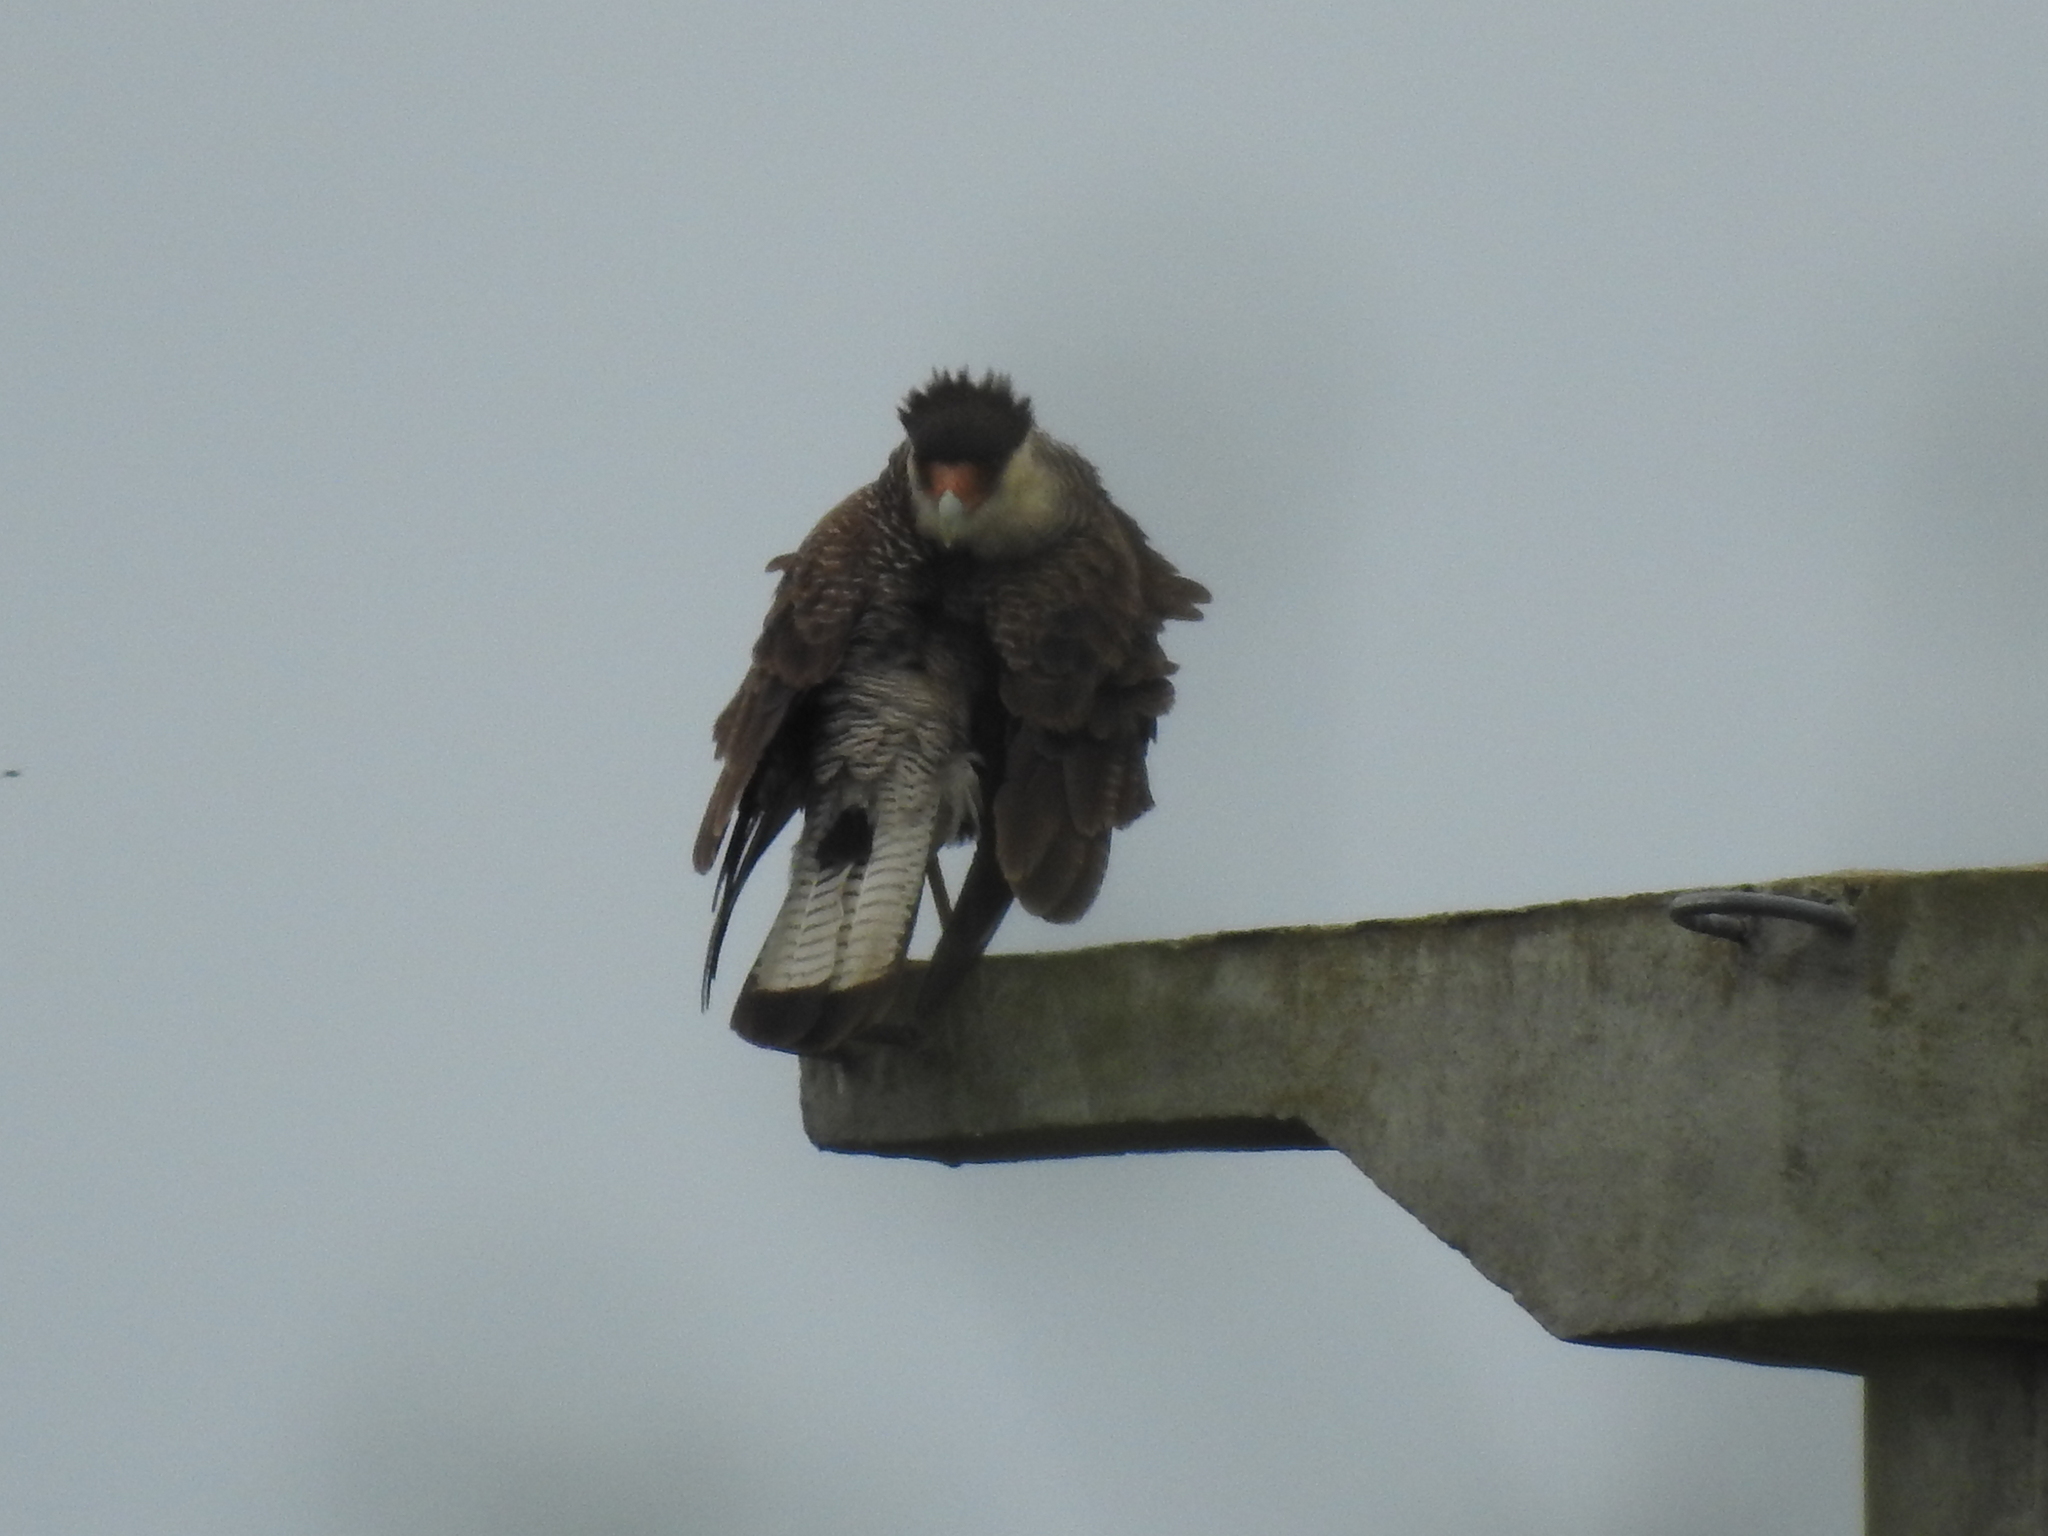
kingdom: Animalia
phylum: Chordata
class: Aves
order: Falconiformes
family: Falconidae
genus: Caracara
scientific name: Caracara plancus
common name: Southern caracara
